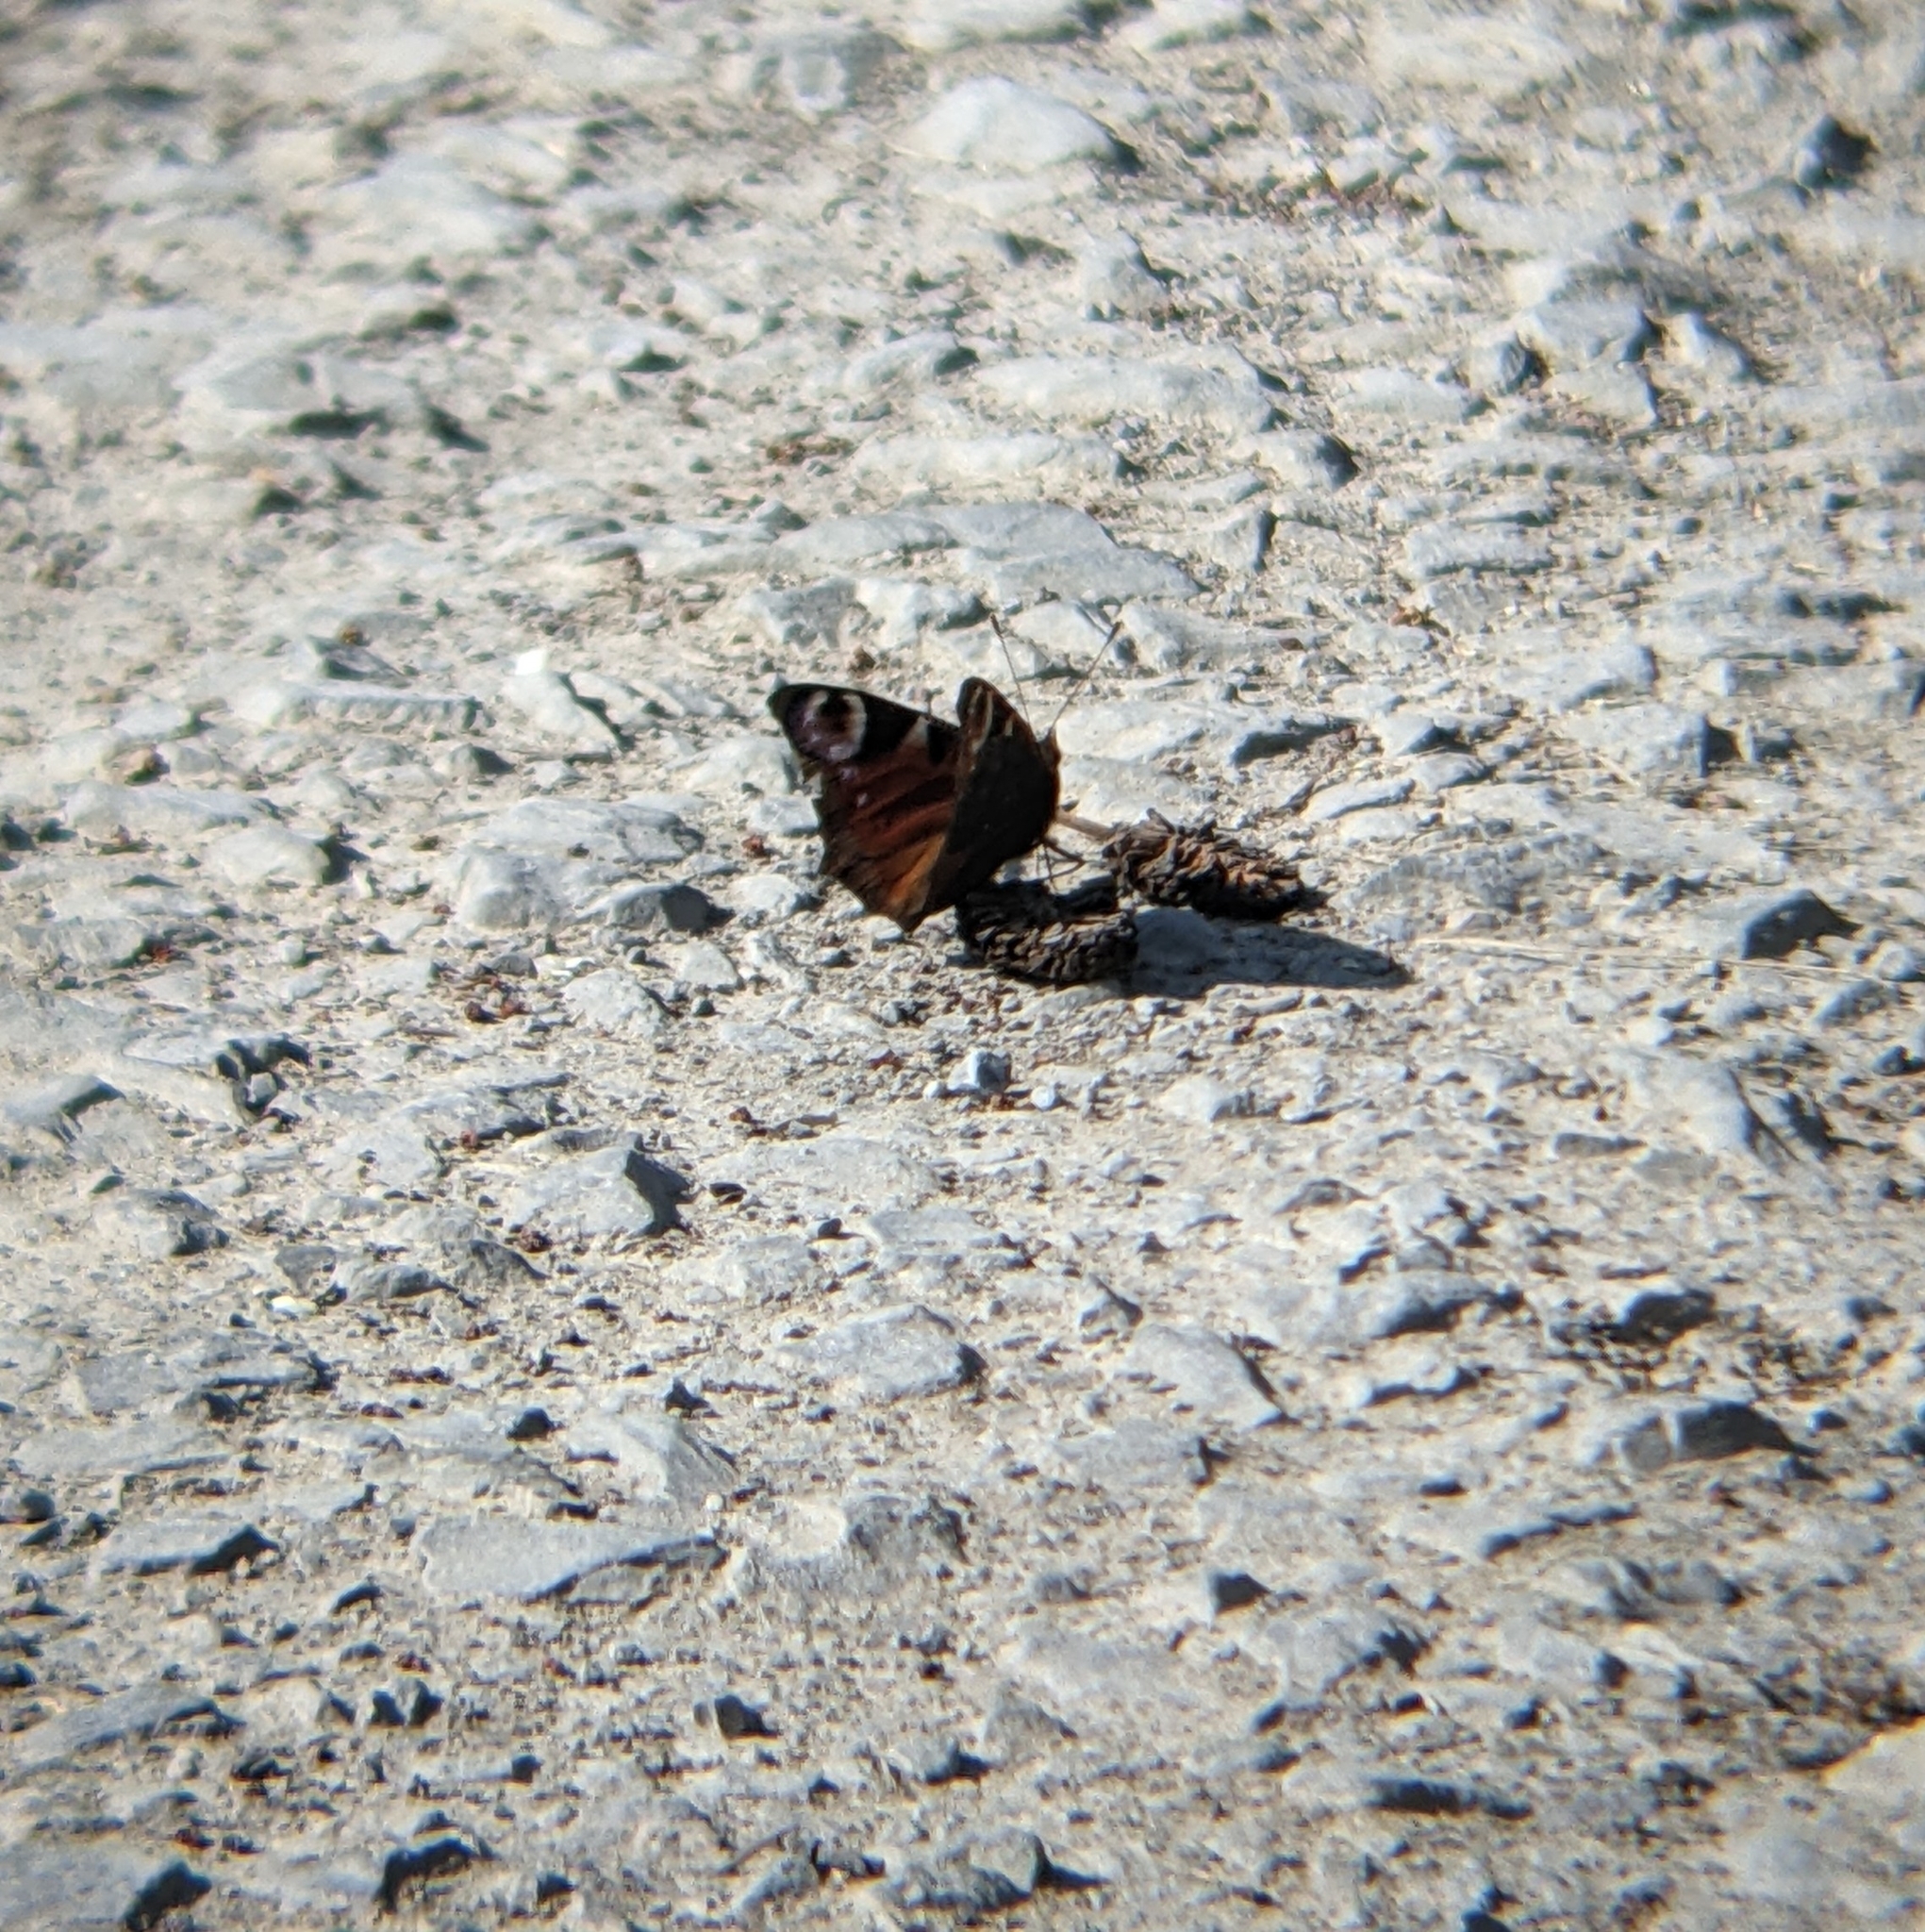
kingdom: Animalia
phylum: Arthropoda
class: Insecta
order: Lepidoptera
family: Nymphalidae
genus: Aglais
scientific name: Aglais io
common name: Peacock
